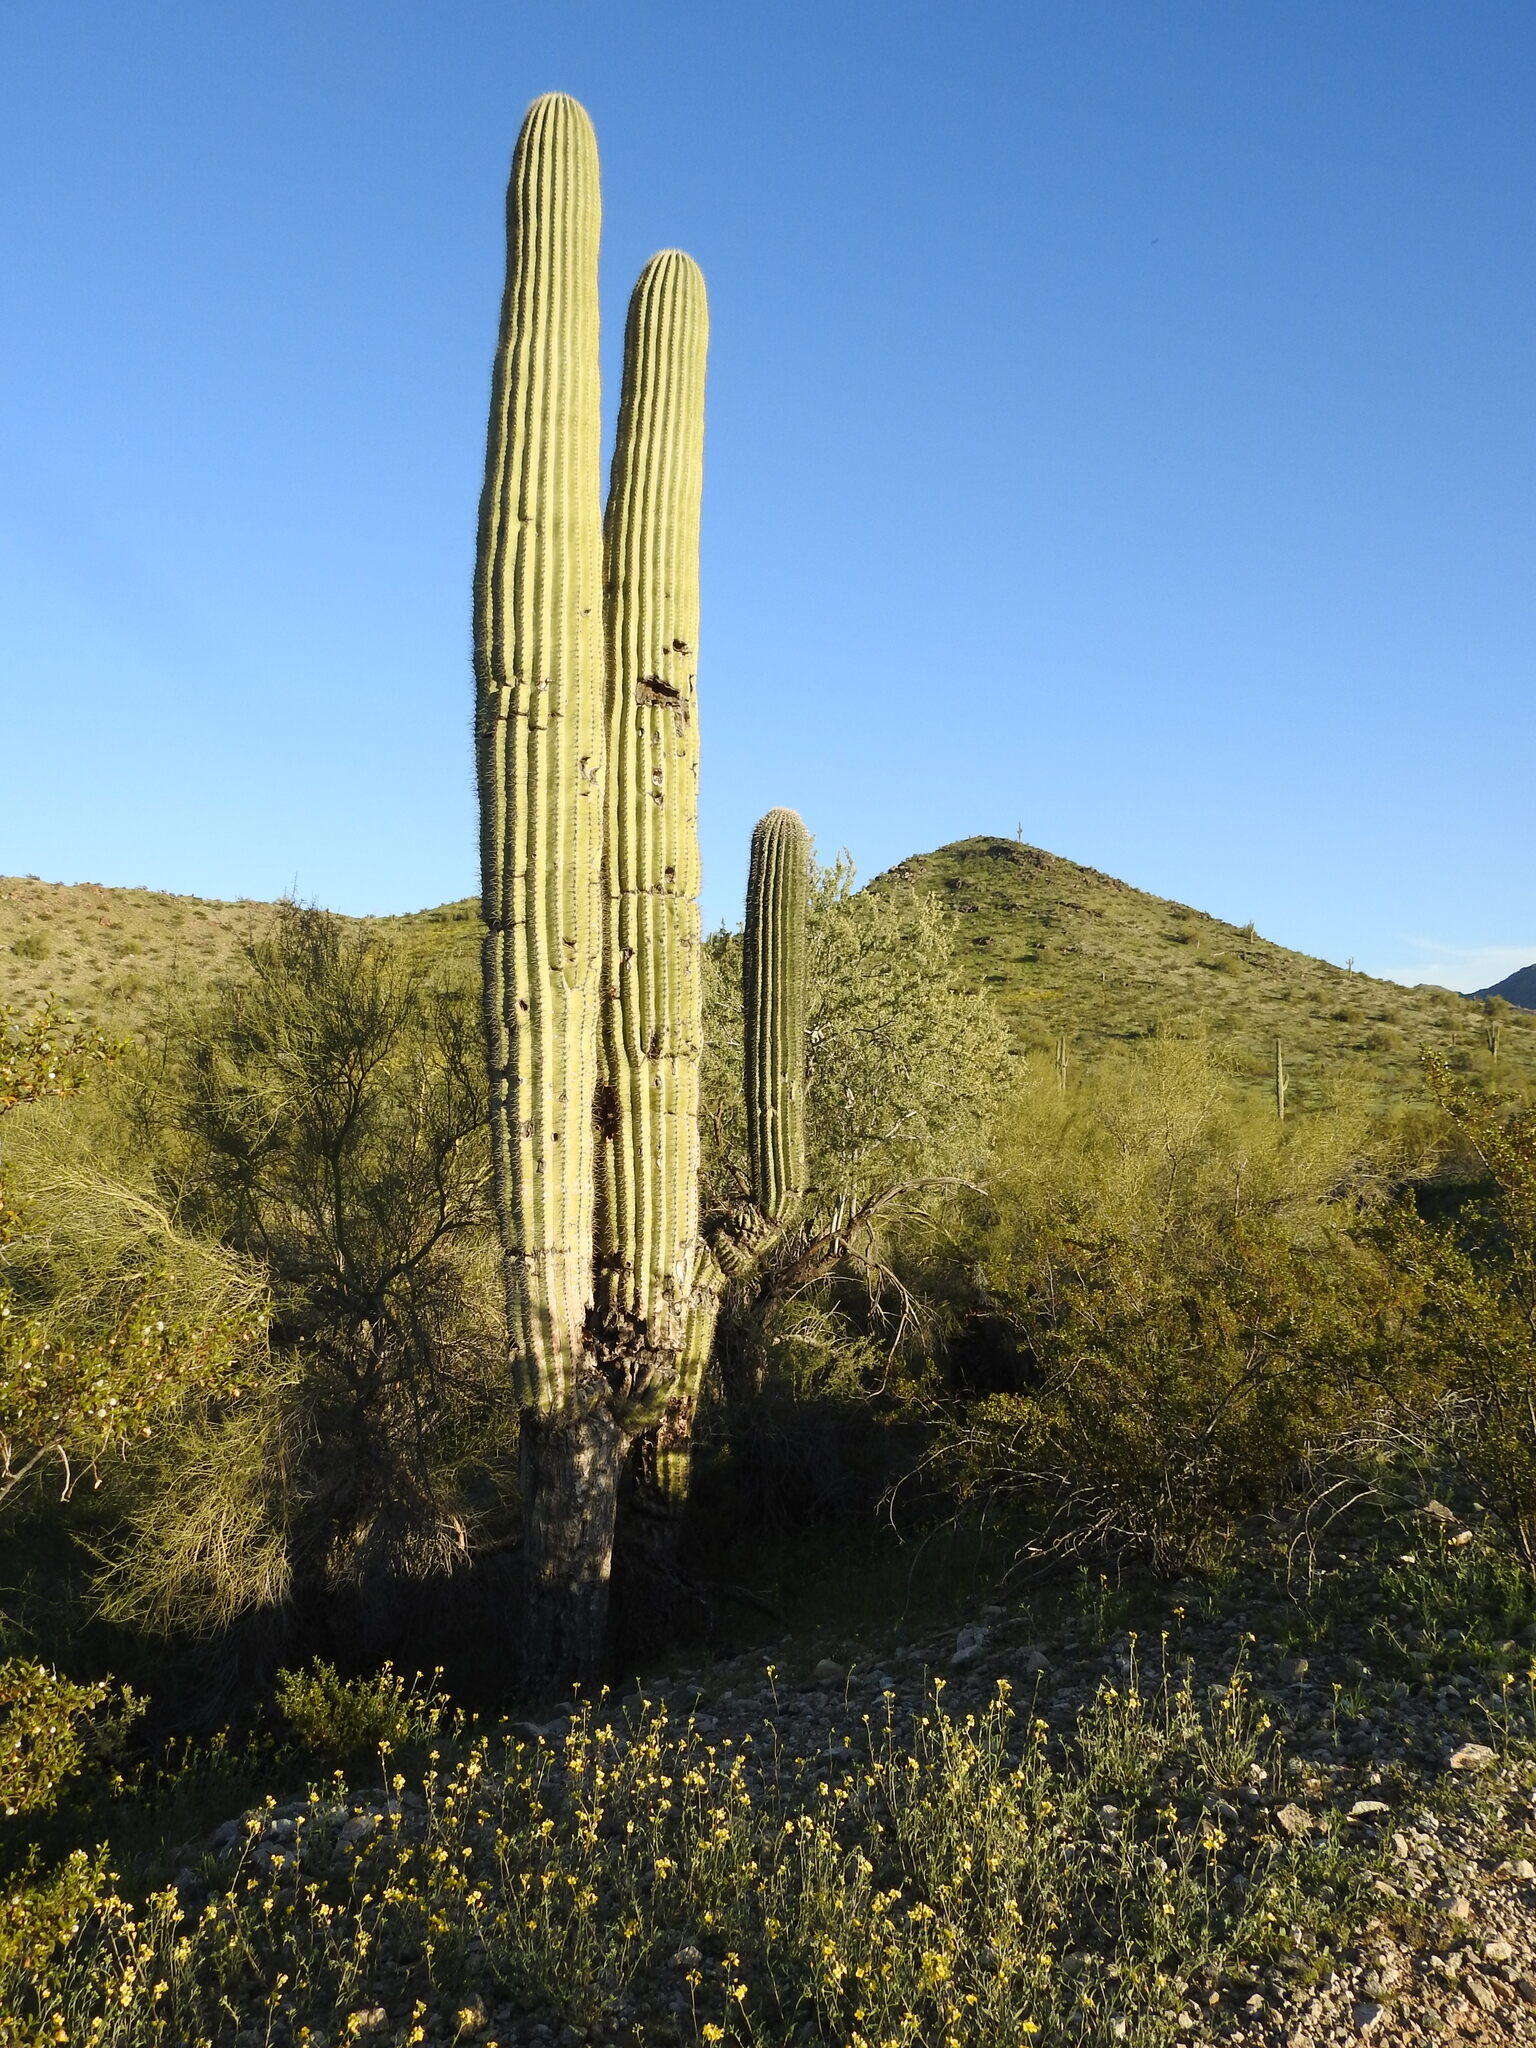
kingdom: Plantae
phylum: Tracheophyta
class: Magnoliopsida
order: Caryophyllales
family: Cactaceae
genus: Carnegiea
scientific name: Carnegiea gigantea
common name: Saguaro
